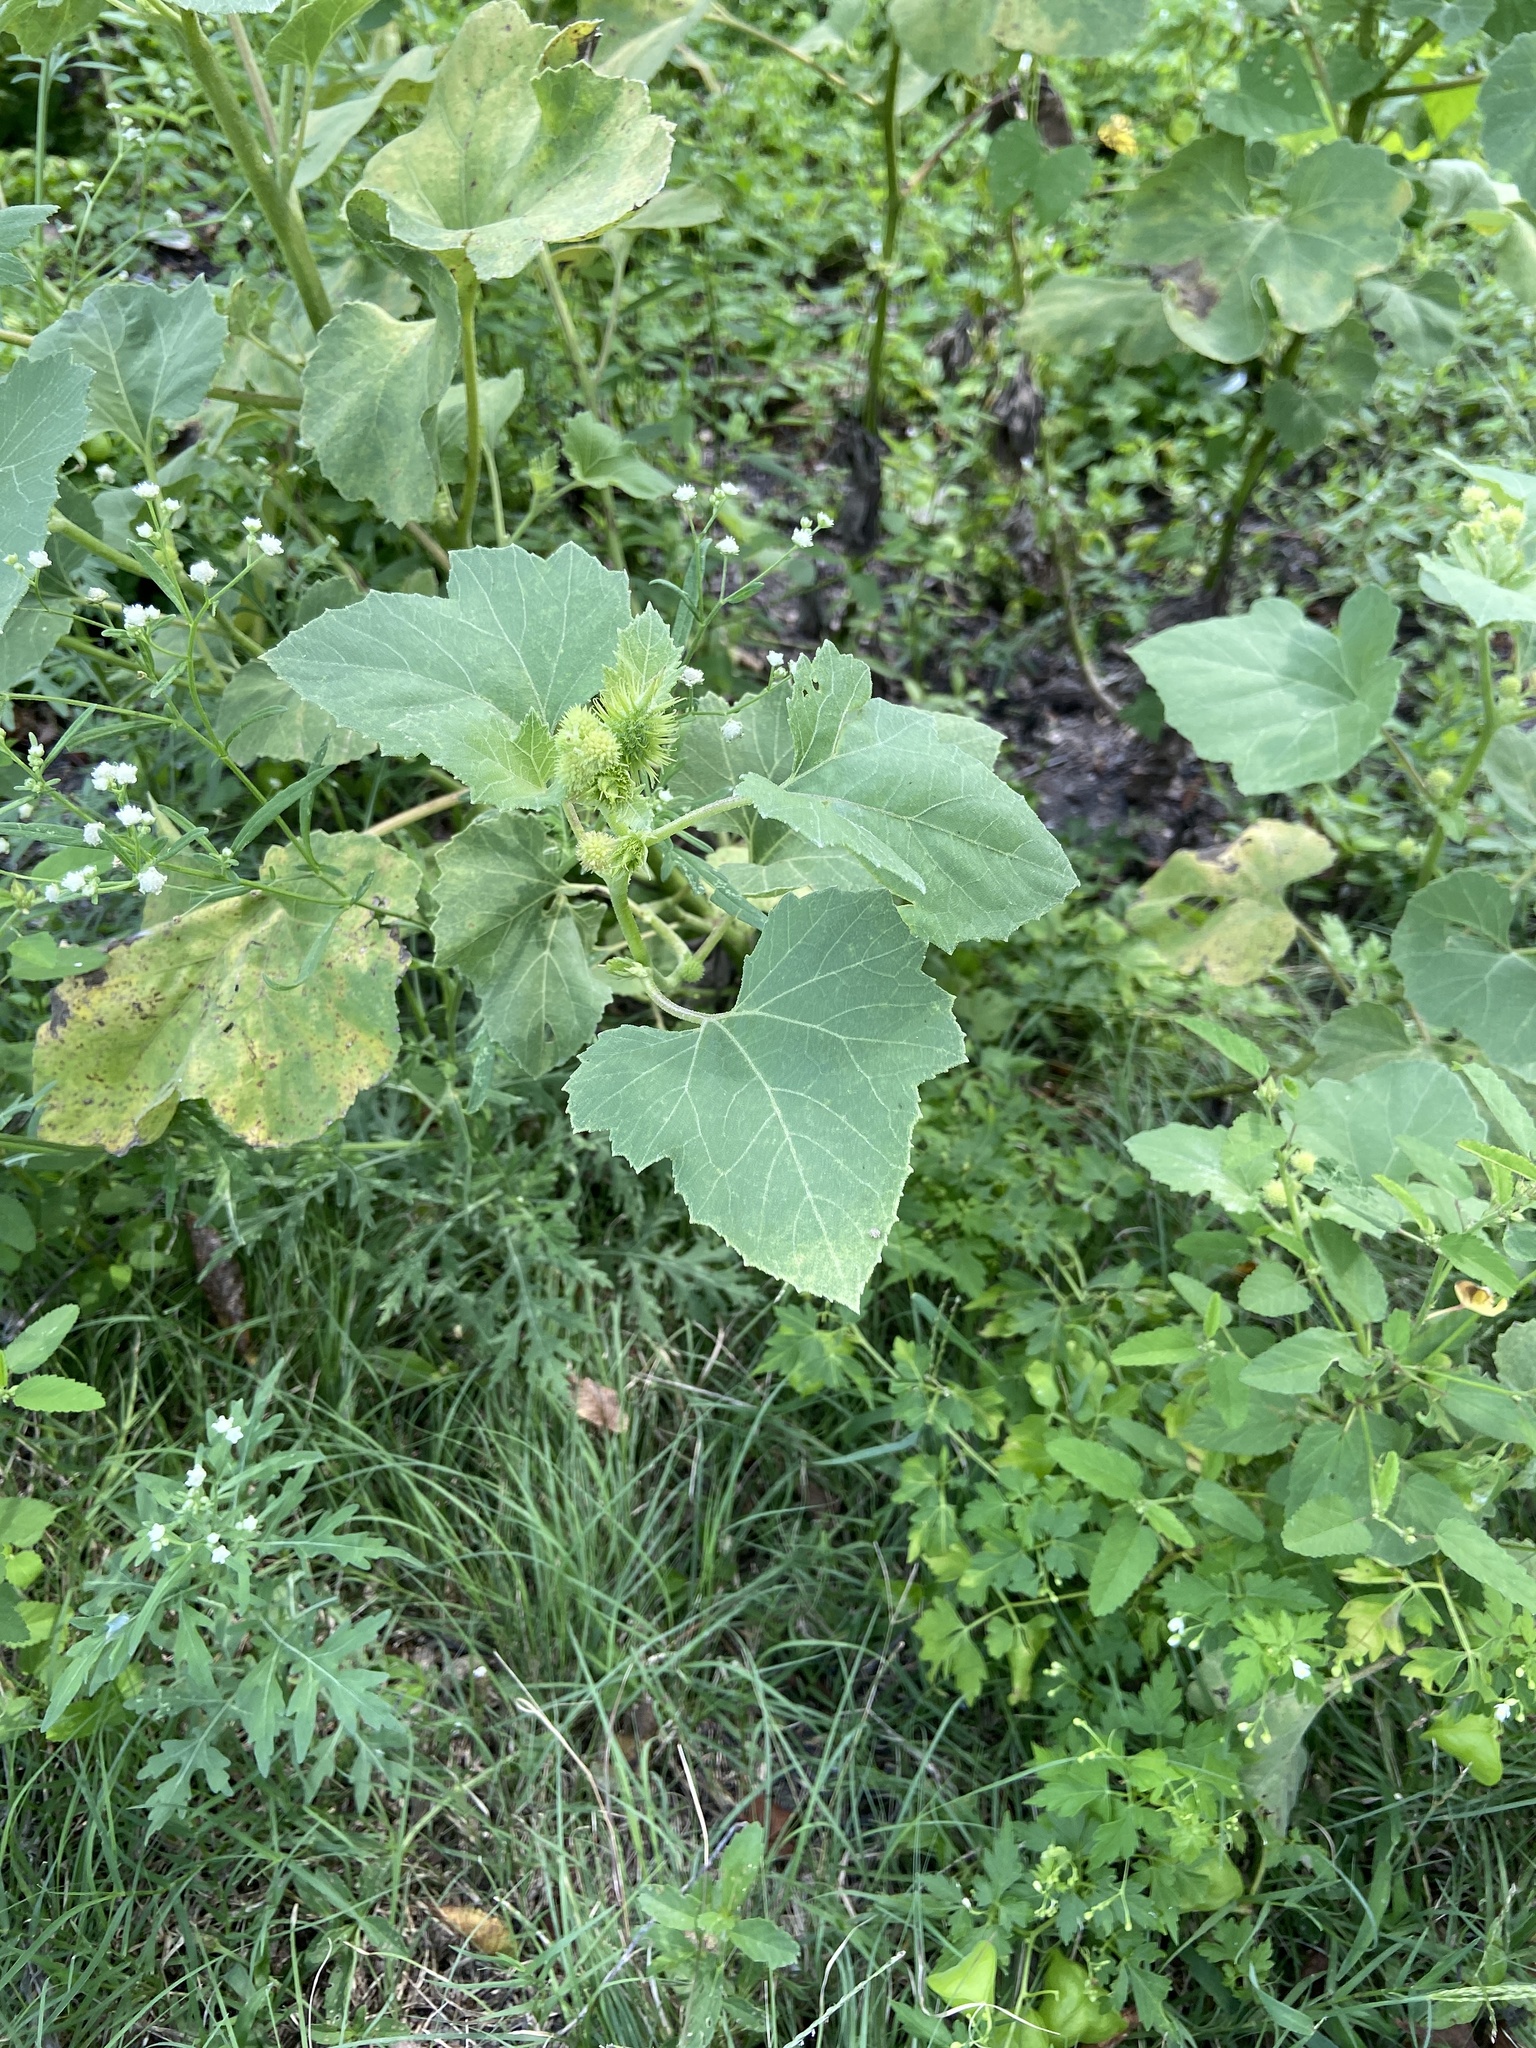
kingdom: Plantae
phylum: Tracheophyta
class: Magnoliopsida
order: Asterales
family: Asteraceae
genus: Xanthium
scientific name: Xanthium strumarium
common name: Rough cocklebur
